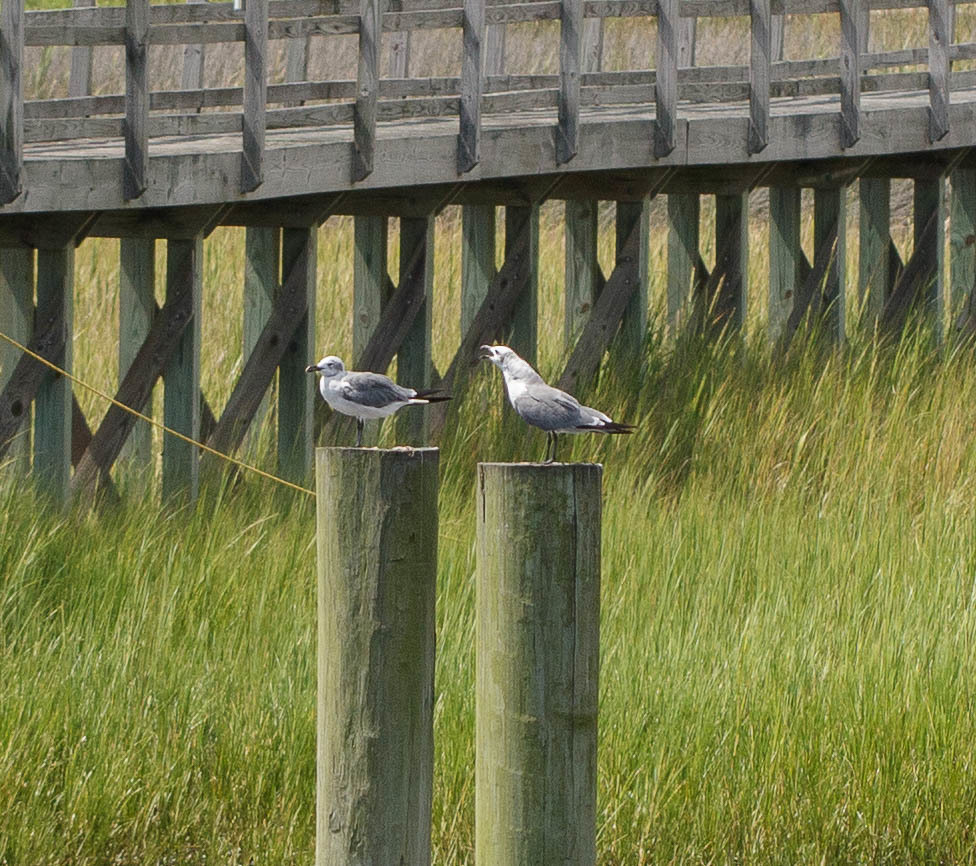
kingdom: Animalia
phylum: Chordata
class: Aves
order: Charadriiformes
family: Laridae
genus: Leucophaeus
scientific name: Leucophaeus atricilla
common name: Laughing gull
